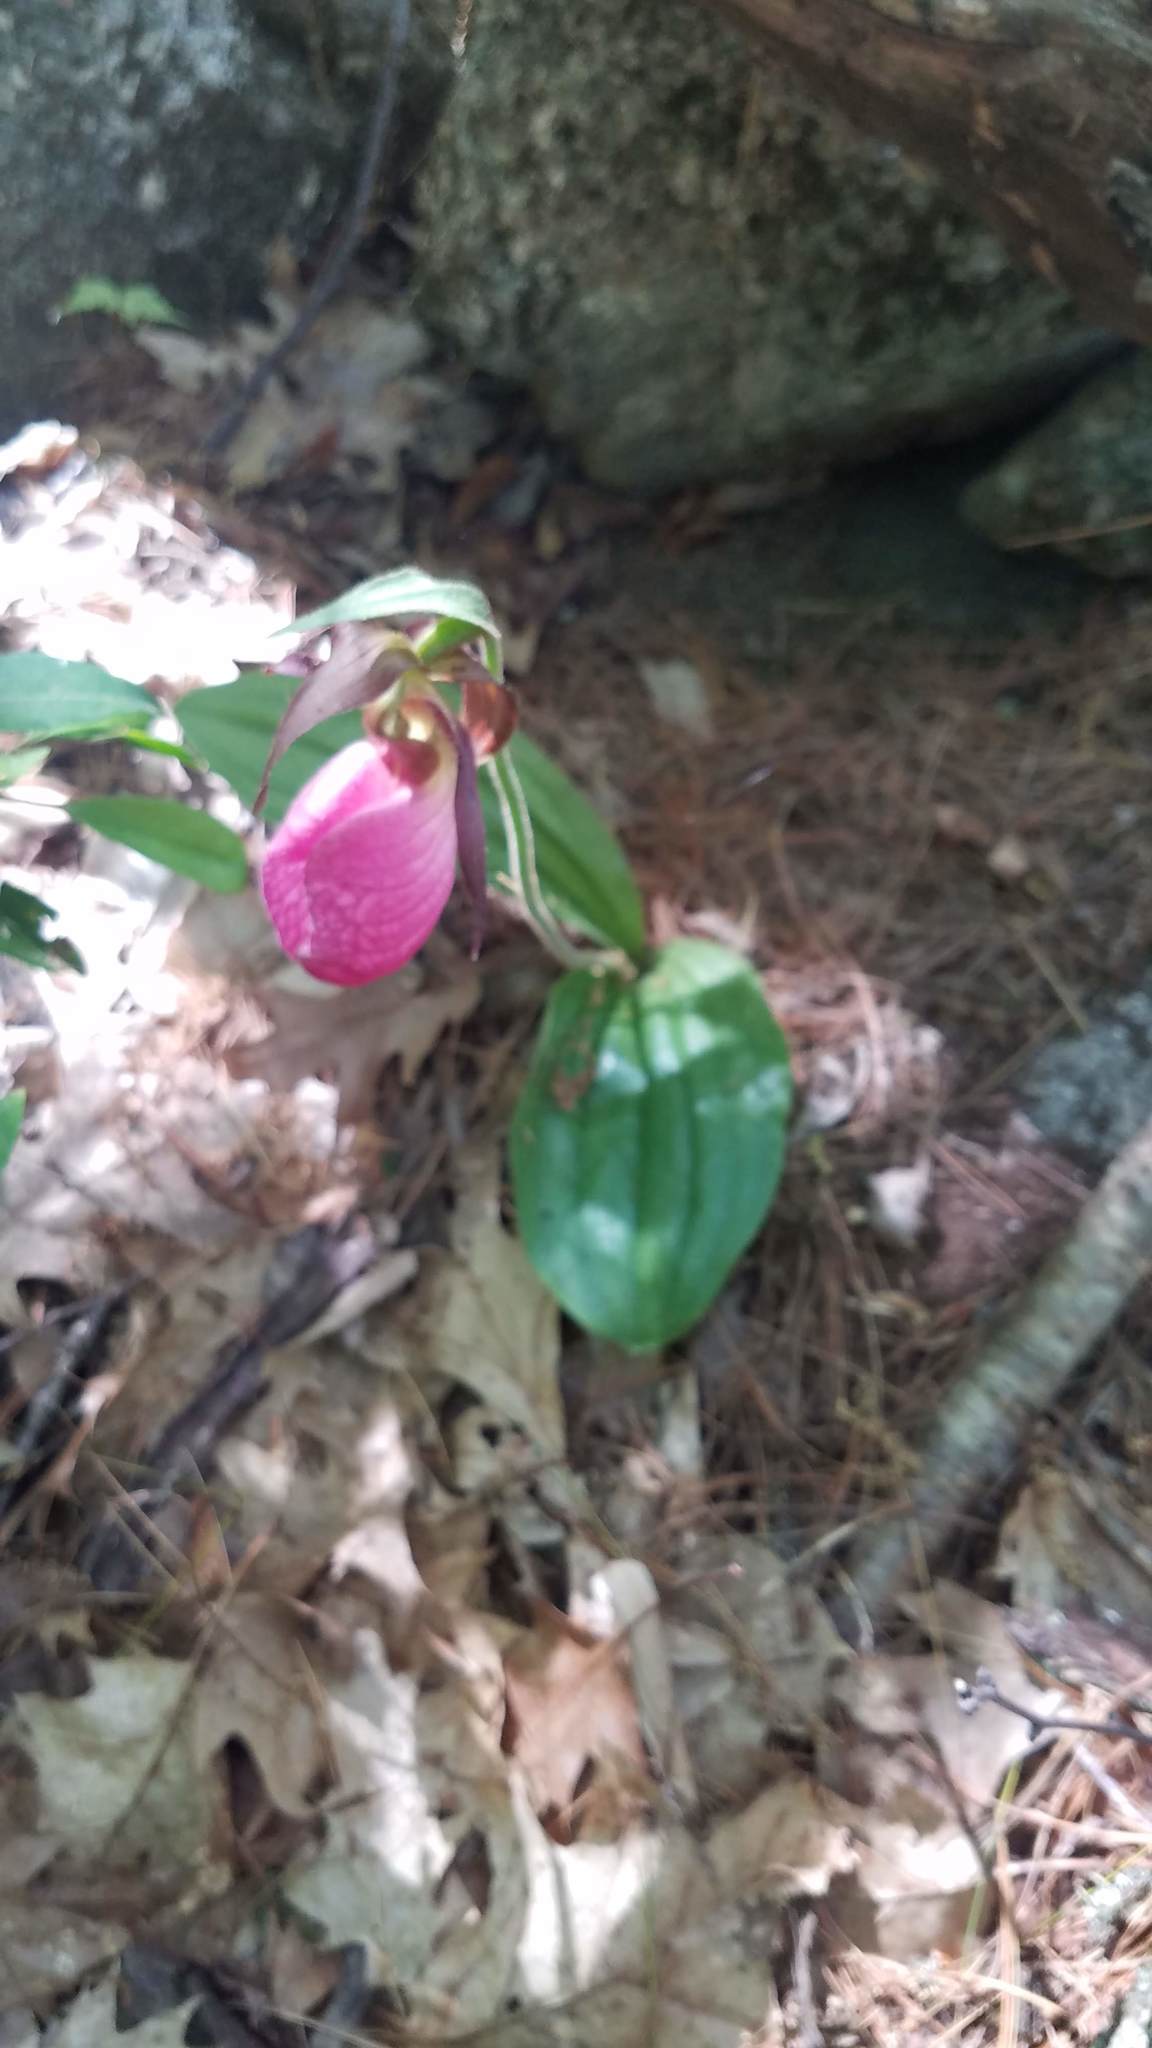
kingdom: Plantae
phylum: Tracheophyta
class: Liliopsida
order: Asparagales
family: Orchidaceae
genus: Cypripedium
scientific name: Cypripedium acaule
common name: Pink lady's-slipper
